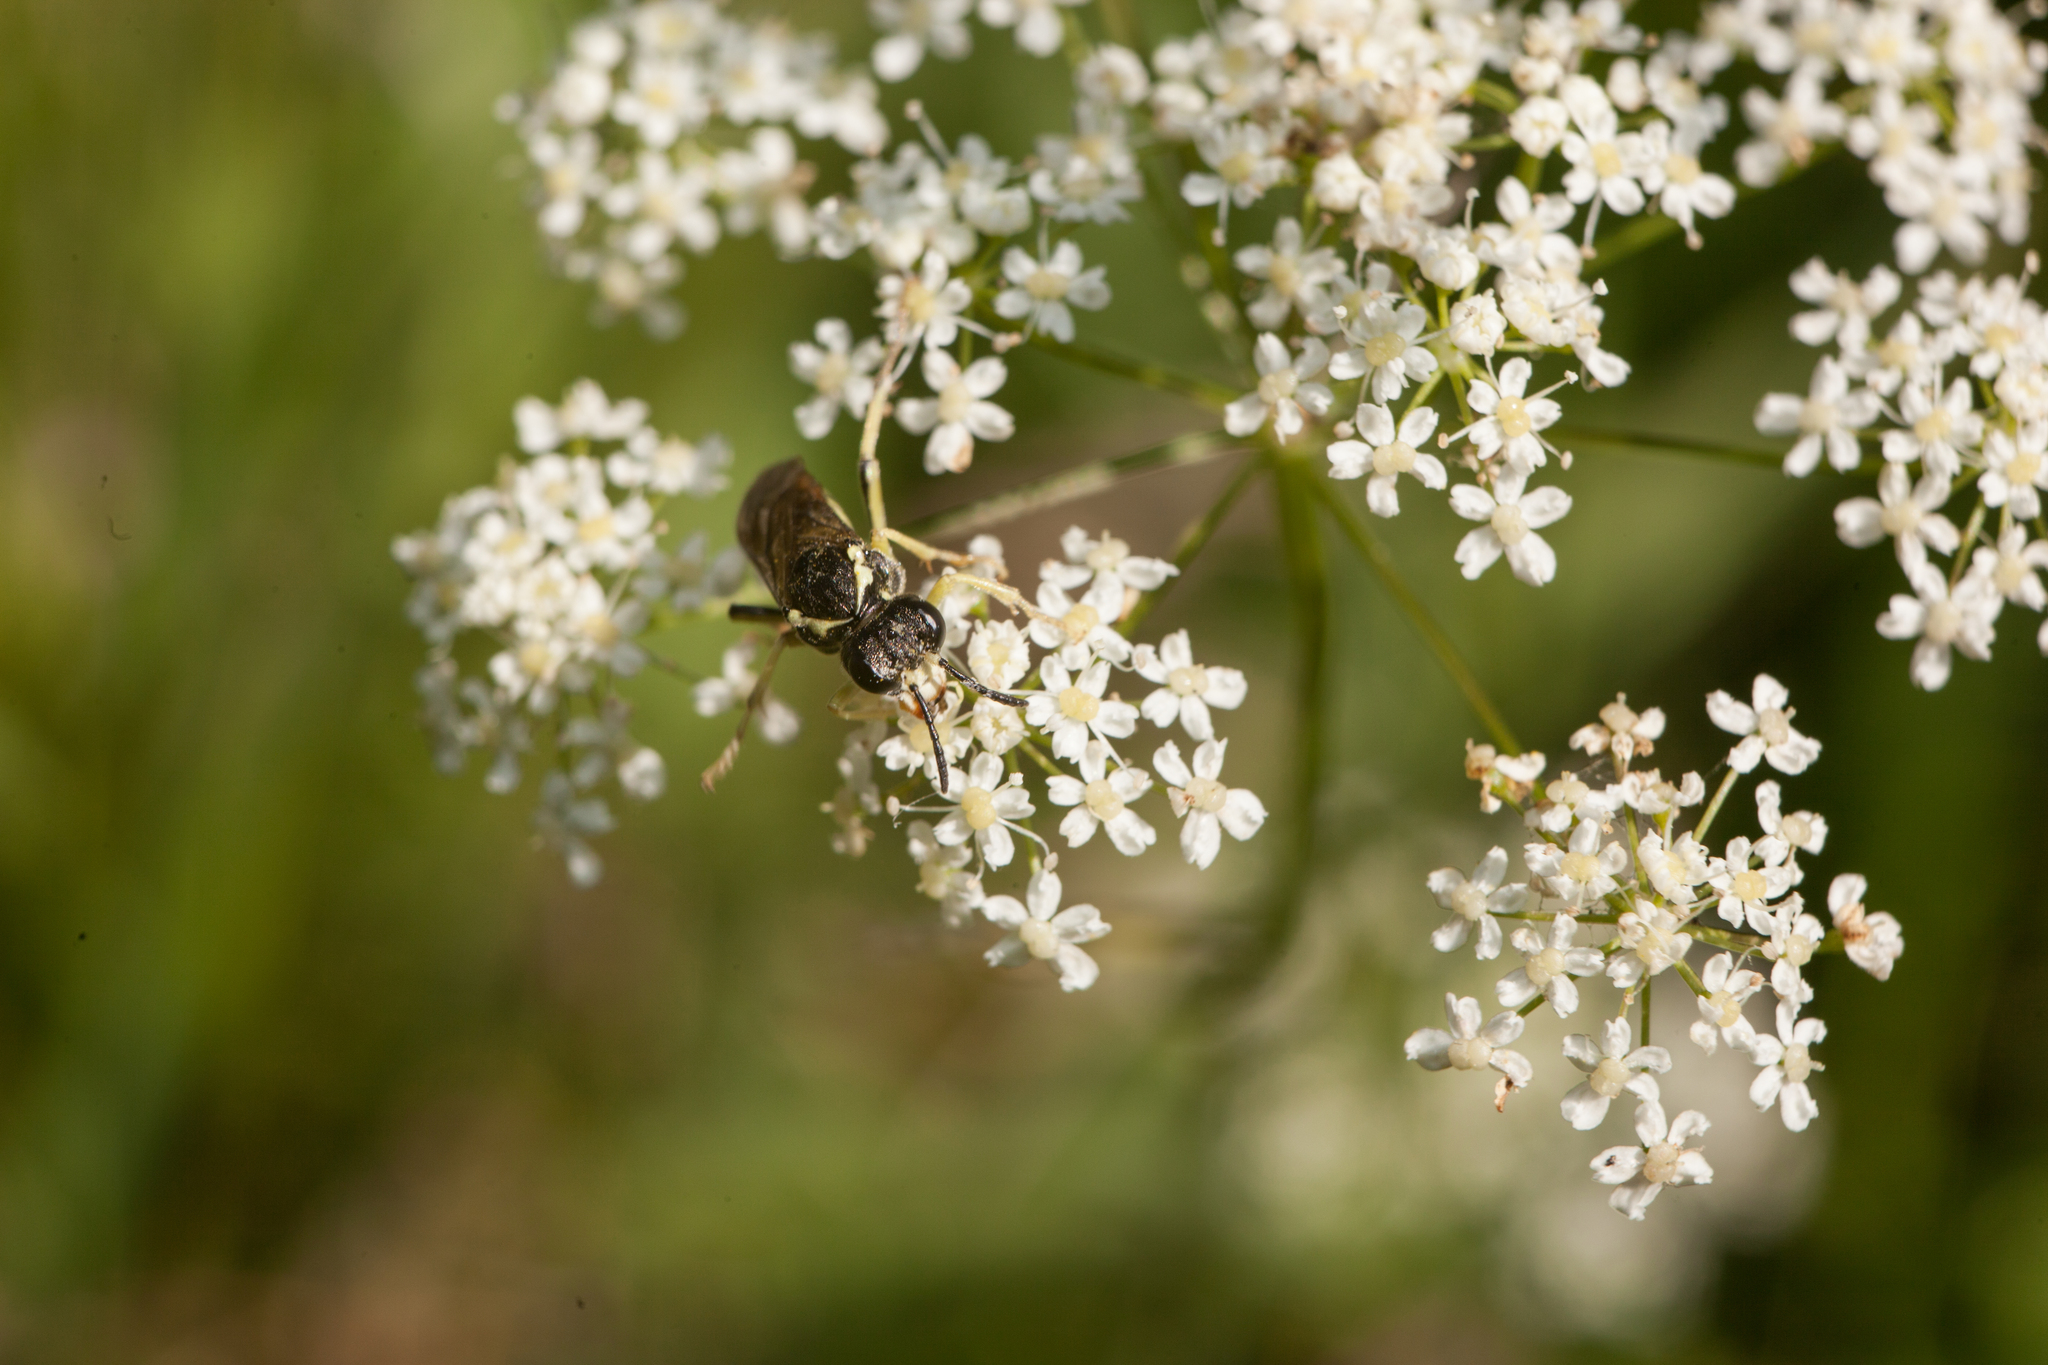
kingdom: Animalia
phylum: Arthropoda
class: Insecta
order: Hymenoptera
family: Tenthredinidae
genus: Tenthredo
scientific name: Tenthredo notha
